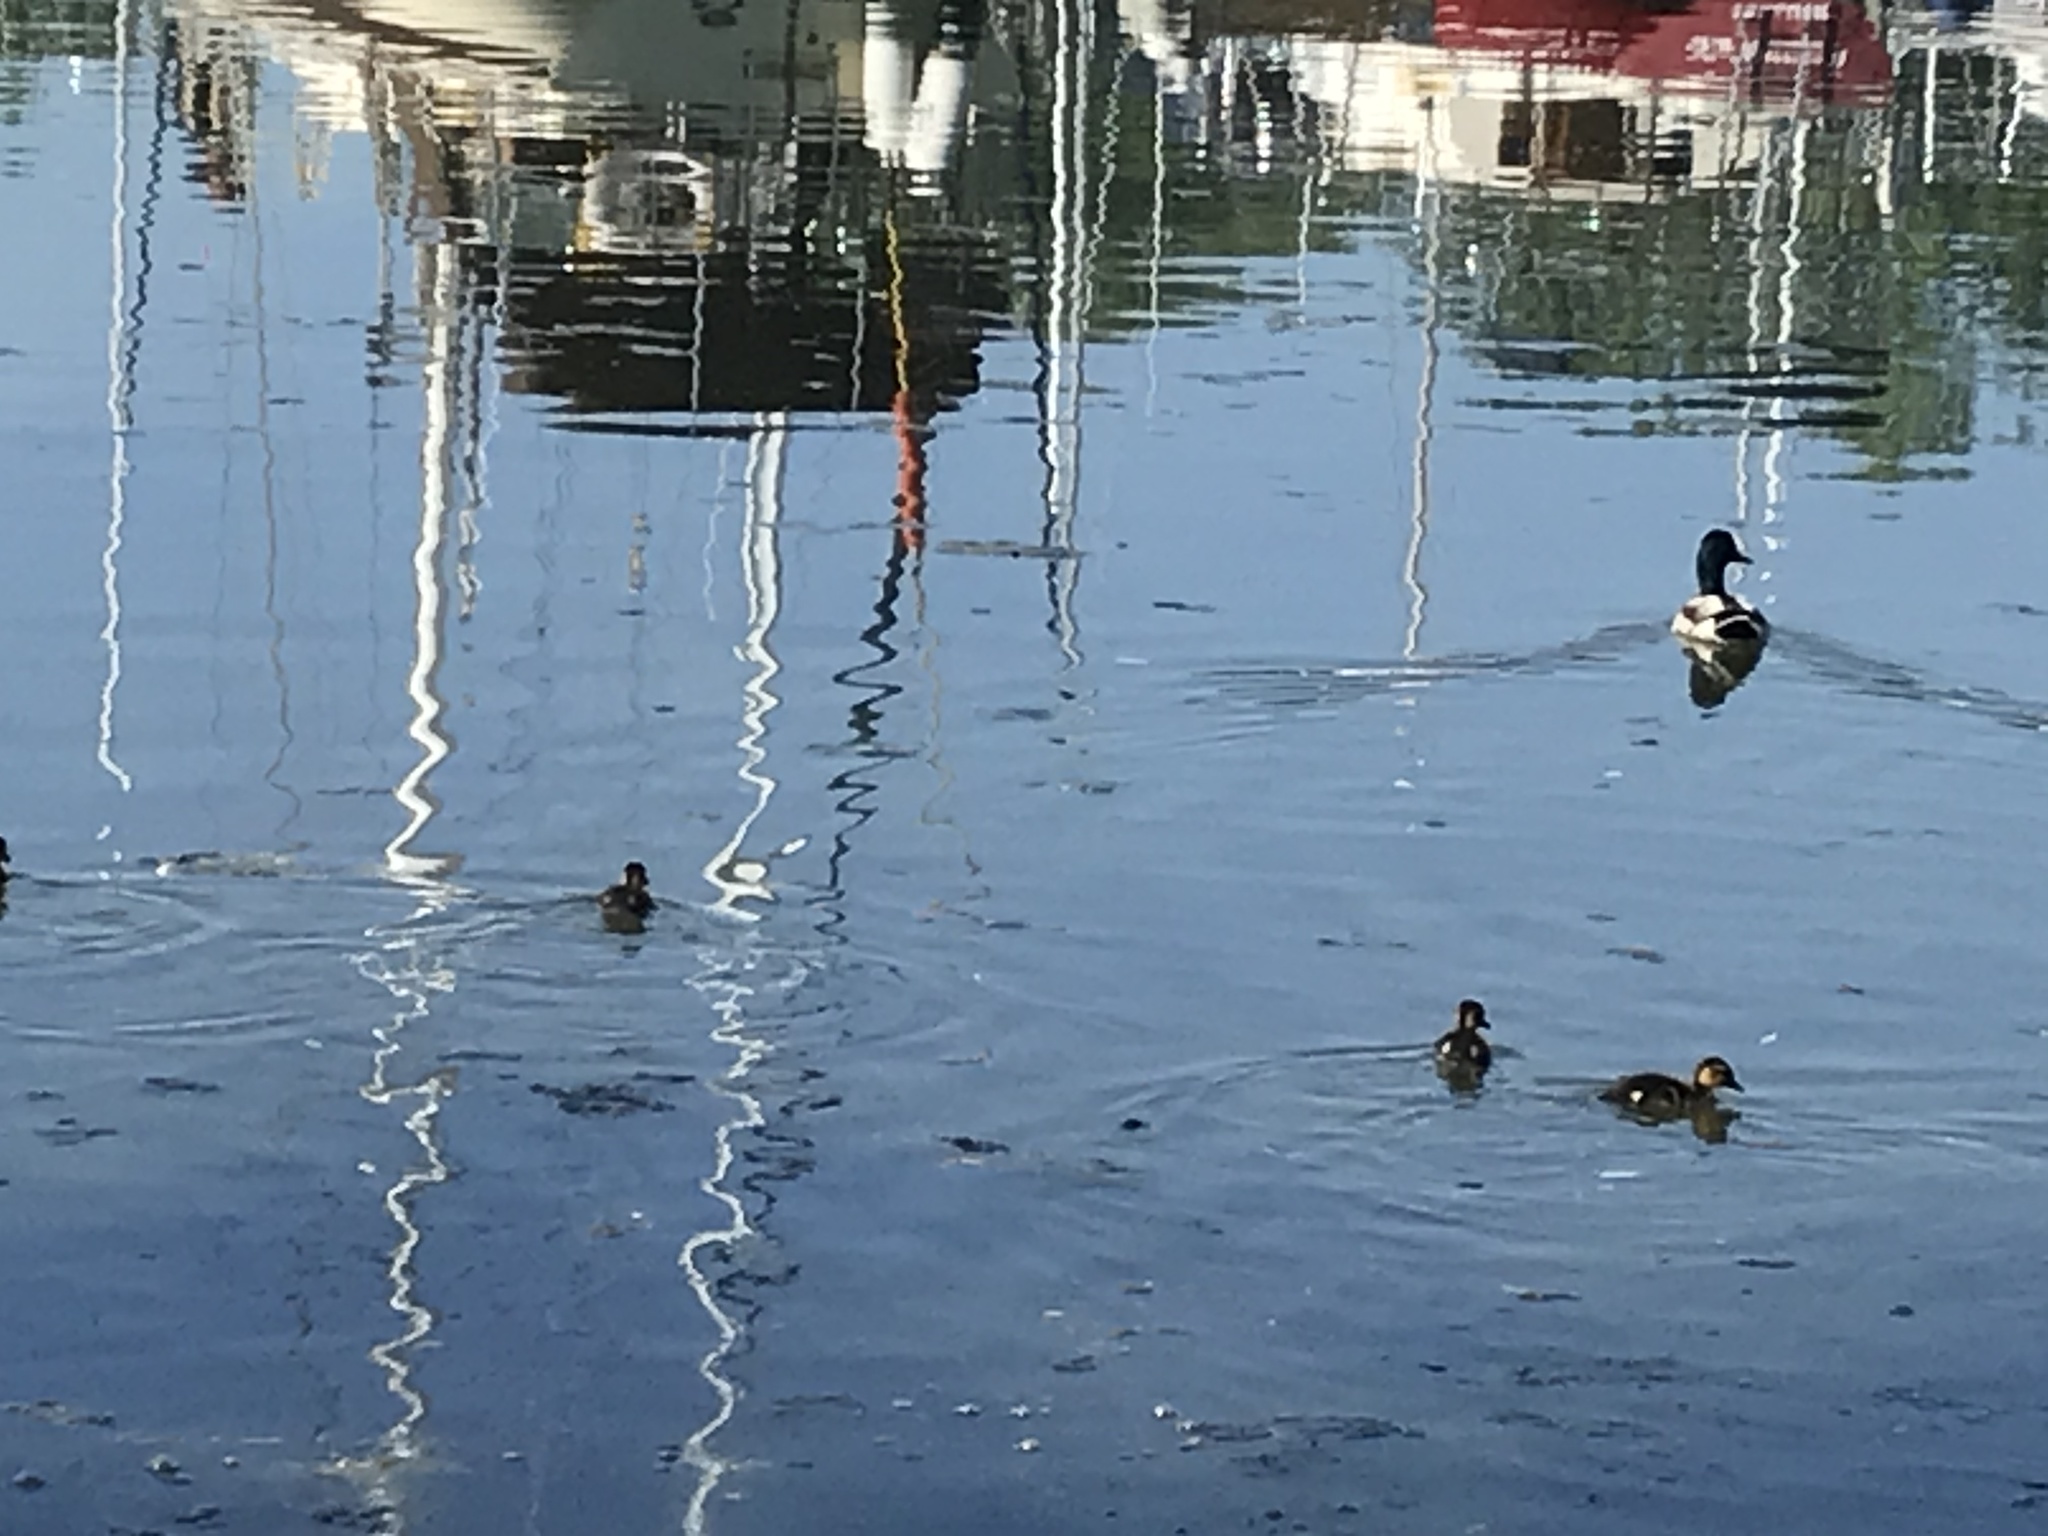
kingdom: Animalia
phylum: Chordata
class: Aves
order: Anseriformes
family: Anatidae
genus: Anas
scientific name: Anas platyrhynchos
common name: Mallard
